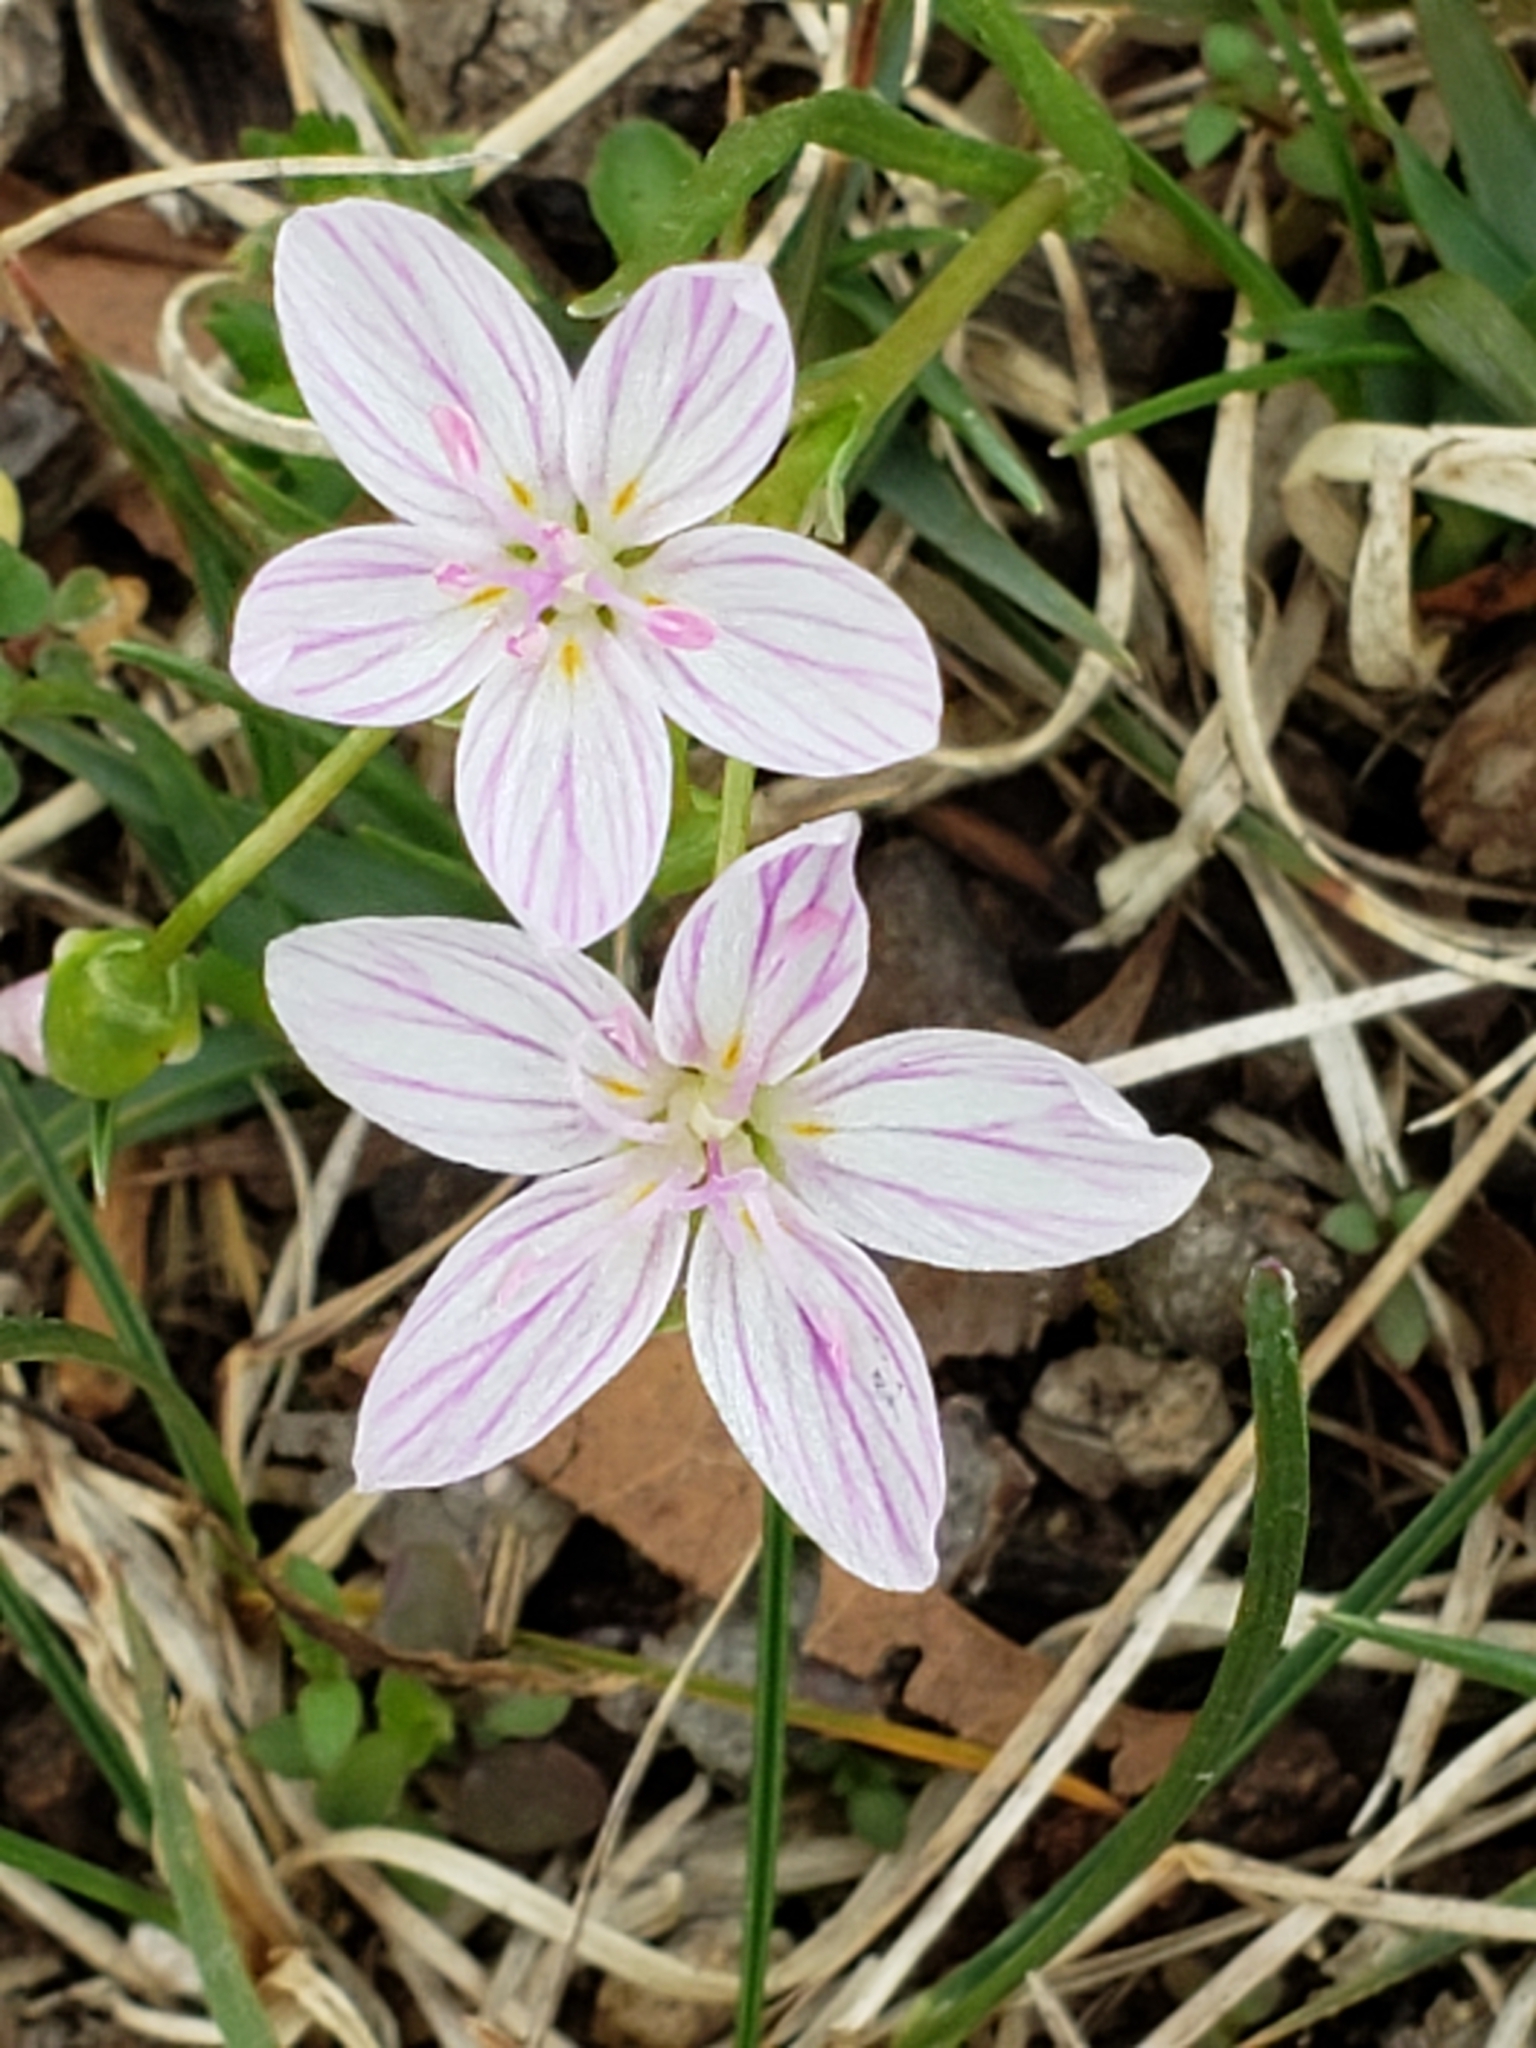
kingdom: Plantae
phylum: Tracheophyta
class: Magnoliopsida
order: Caryophyllales
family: Montiaceae
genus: Claytonia
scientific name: Claytonia virginica
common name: Virginia springbeauty
